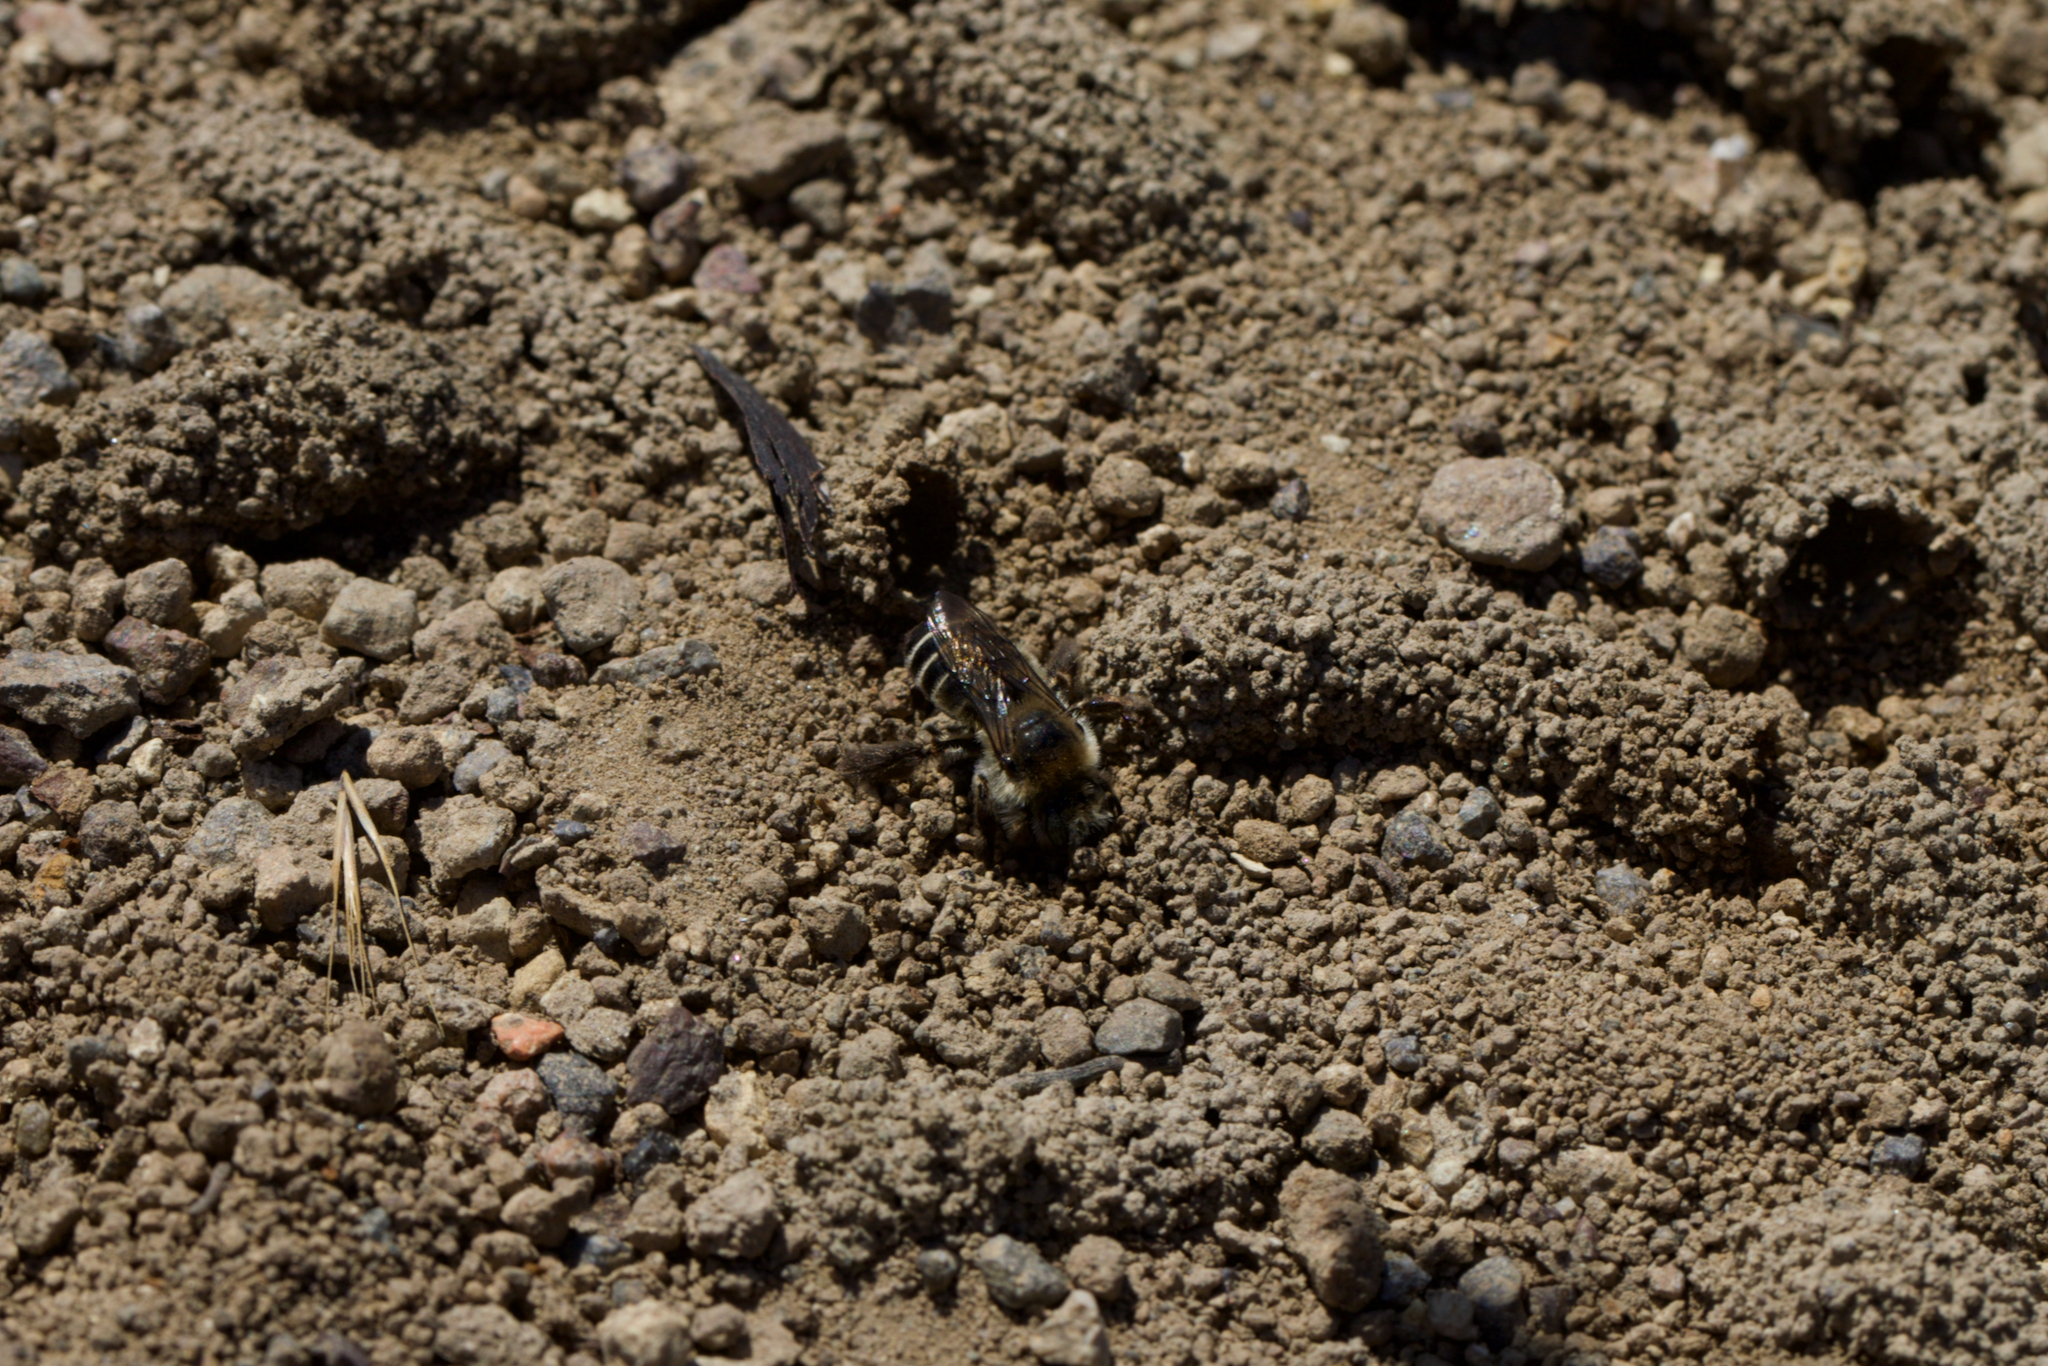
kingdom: Animalia
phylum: Arthropoda
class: Insecta
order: Hymenoptera
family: Apidae
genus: Diadasia
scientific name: Diadasia bituberculata
